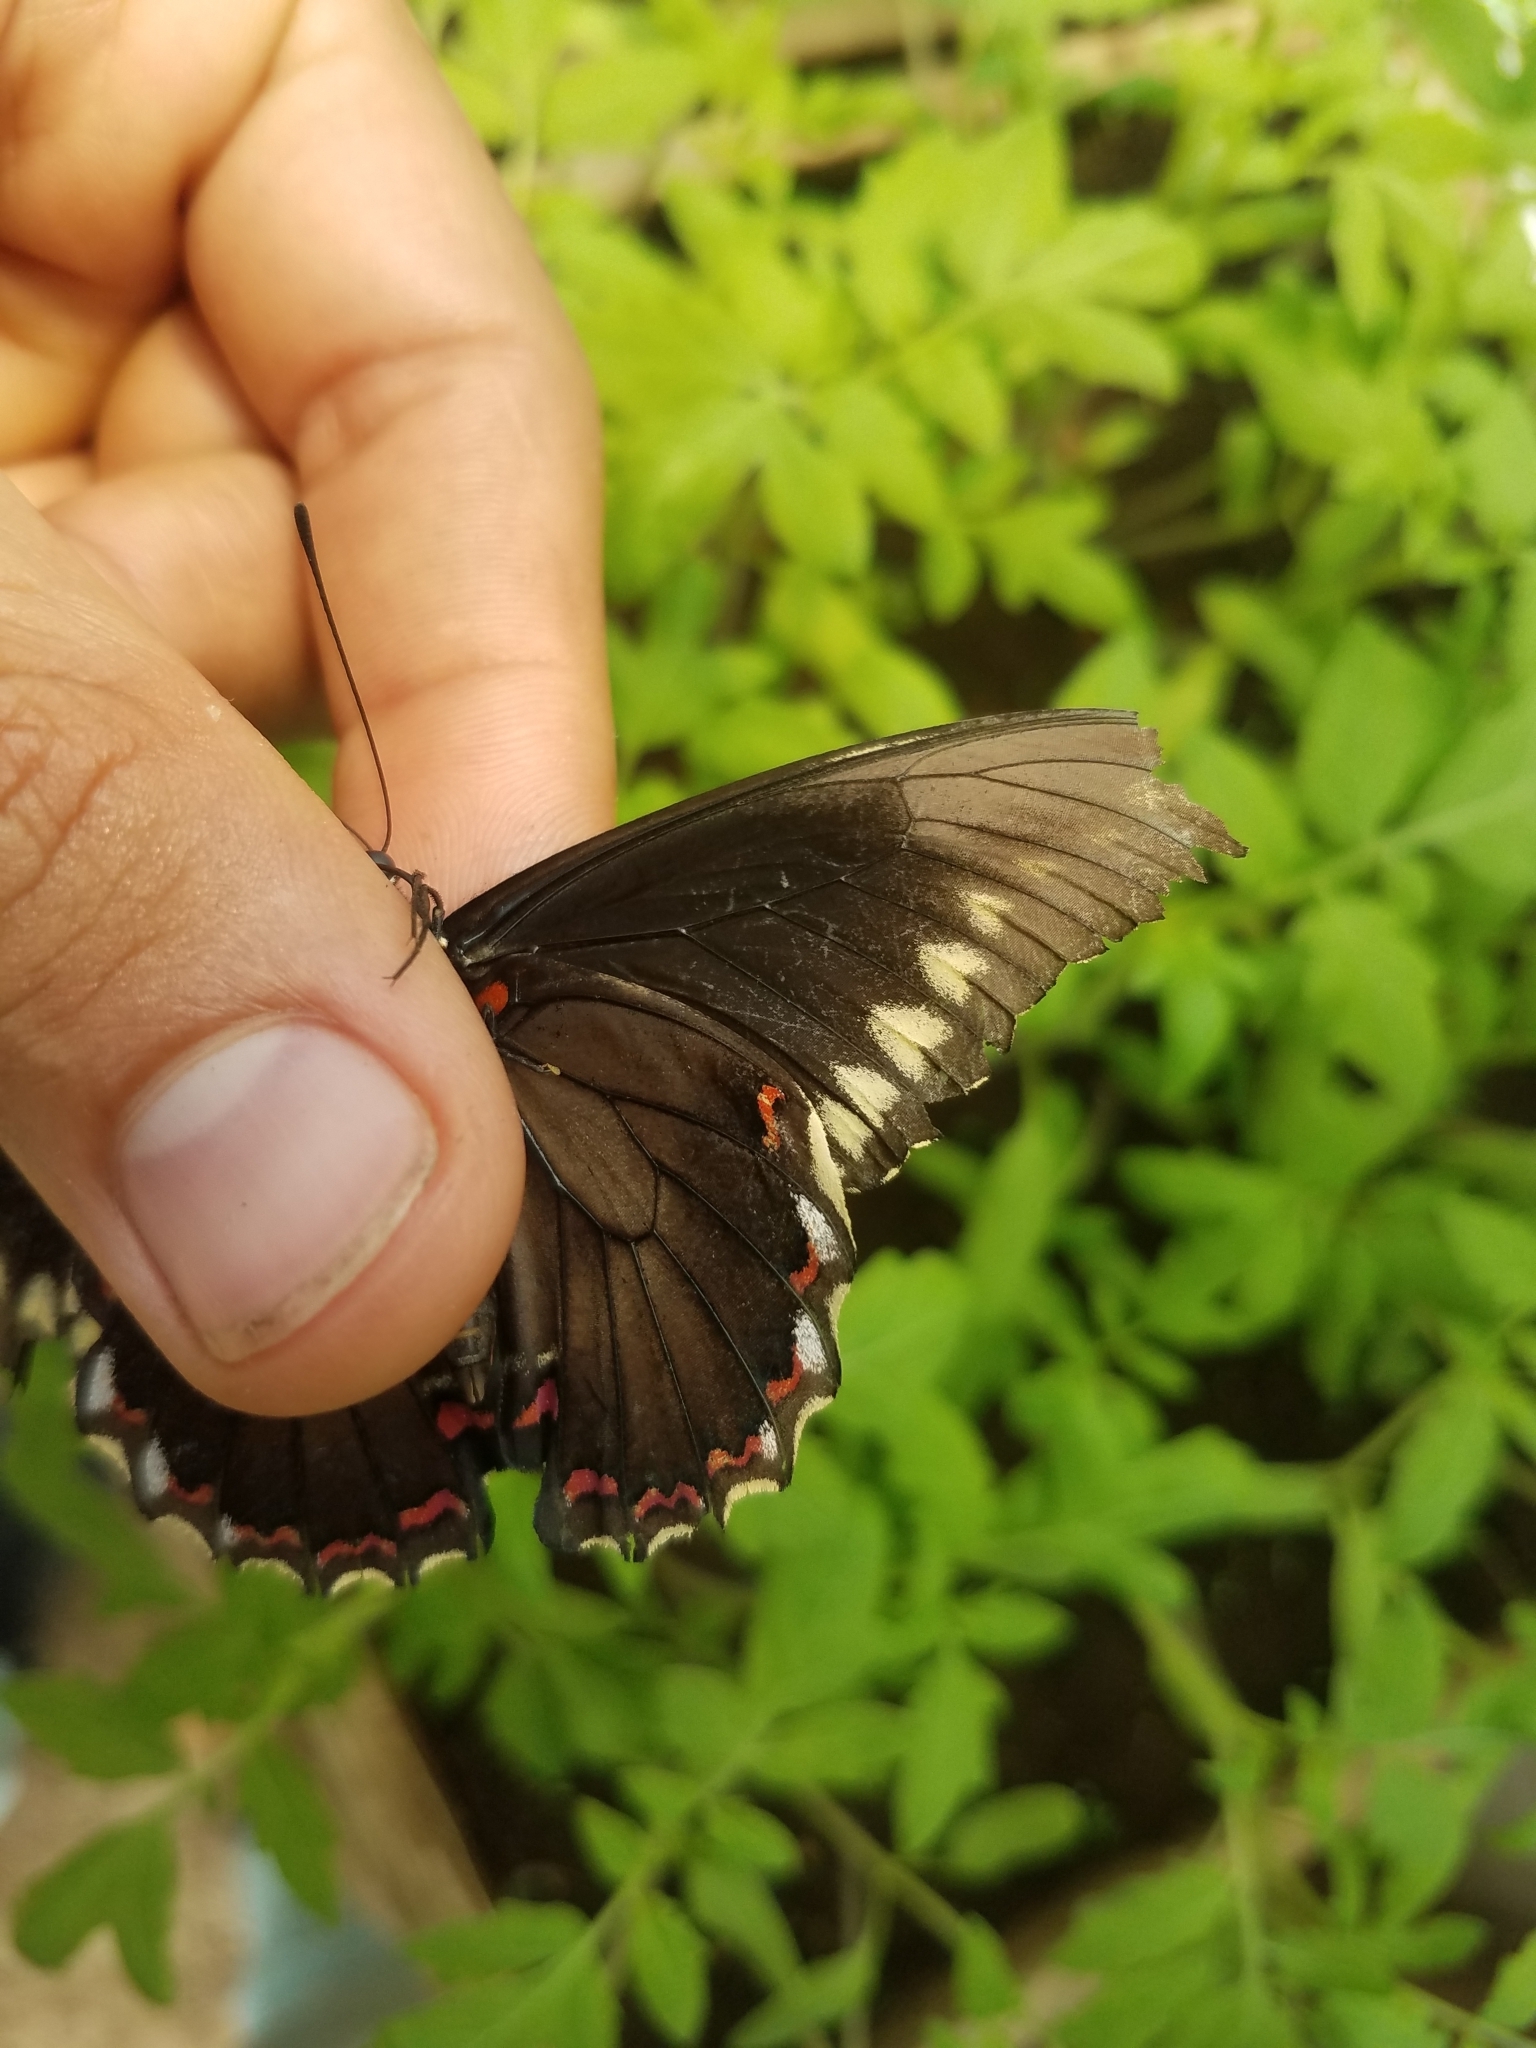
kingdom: Animalia
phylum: Arthropoda
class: Insecta
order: Lepidoptera
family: Papilionidae
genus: Battus
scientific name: Battus polydamas
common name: Polydamas swallowtail
